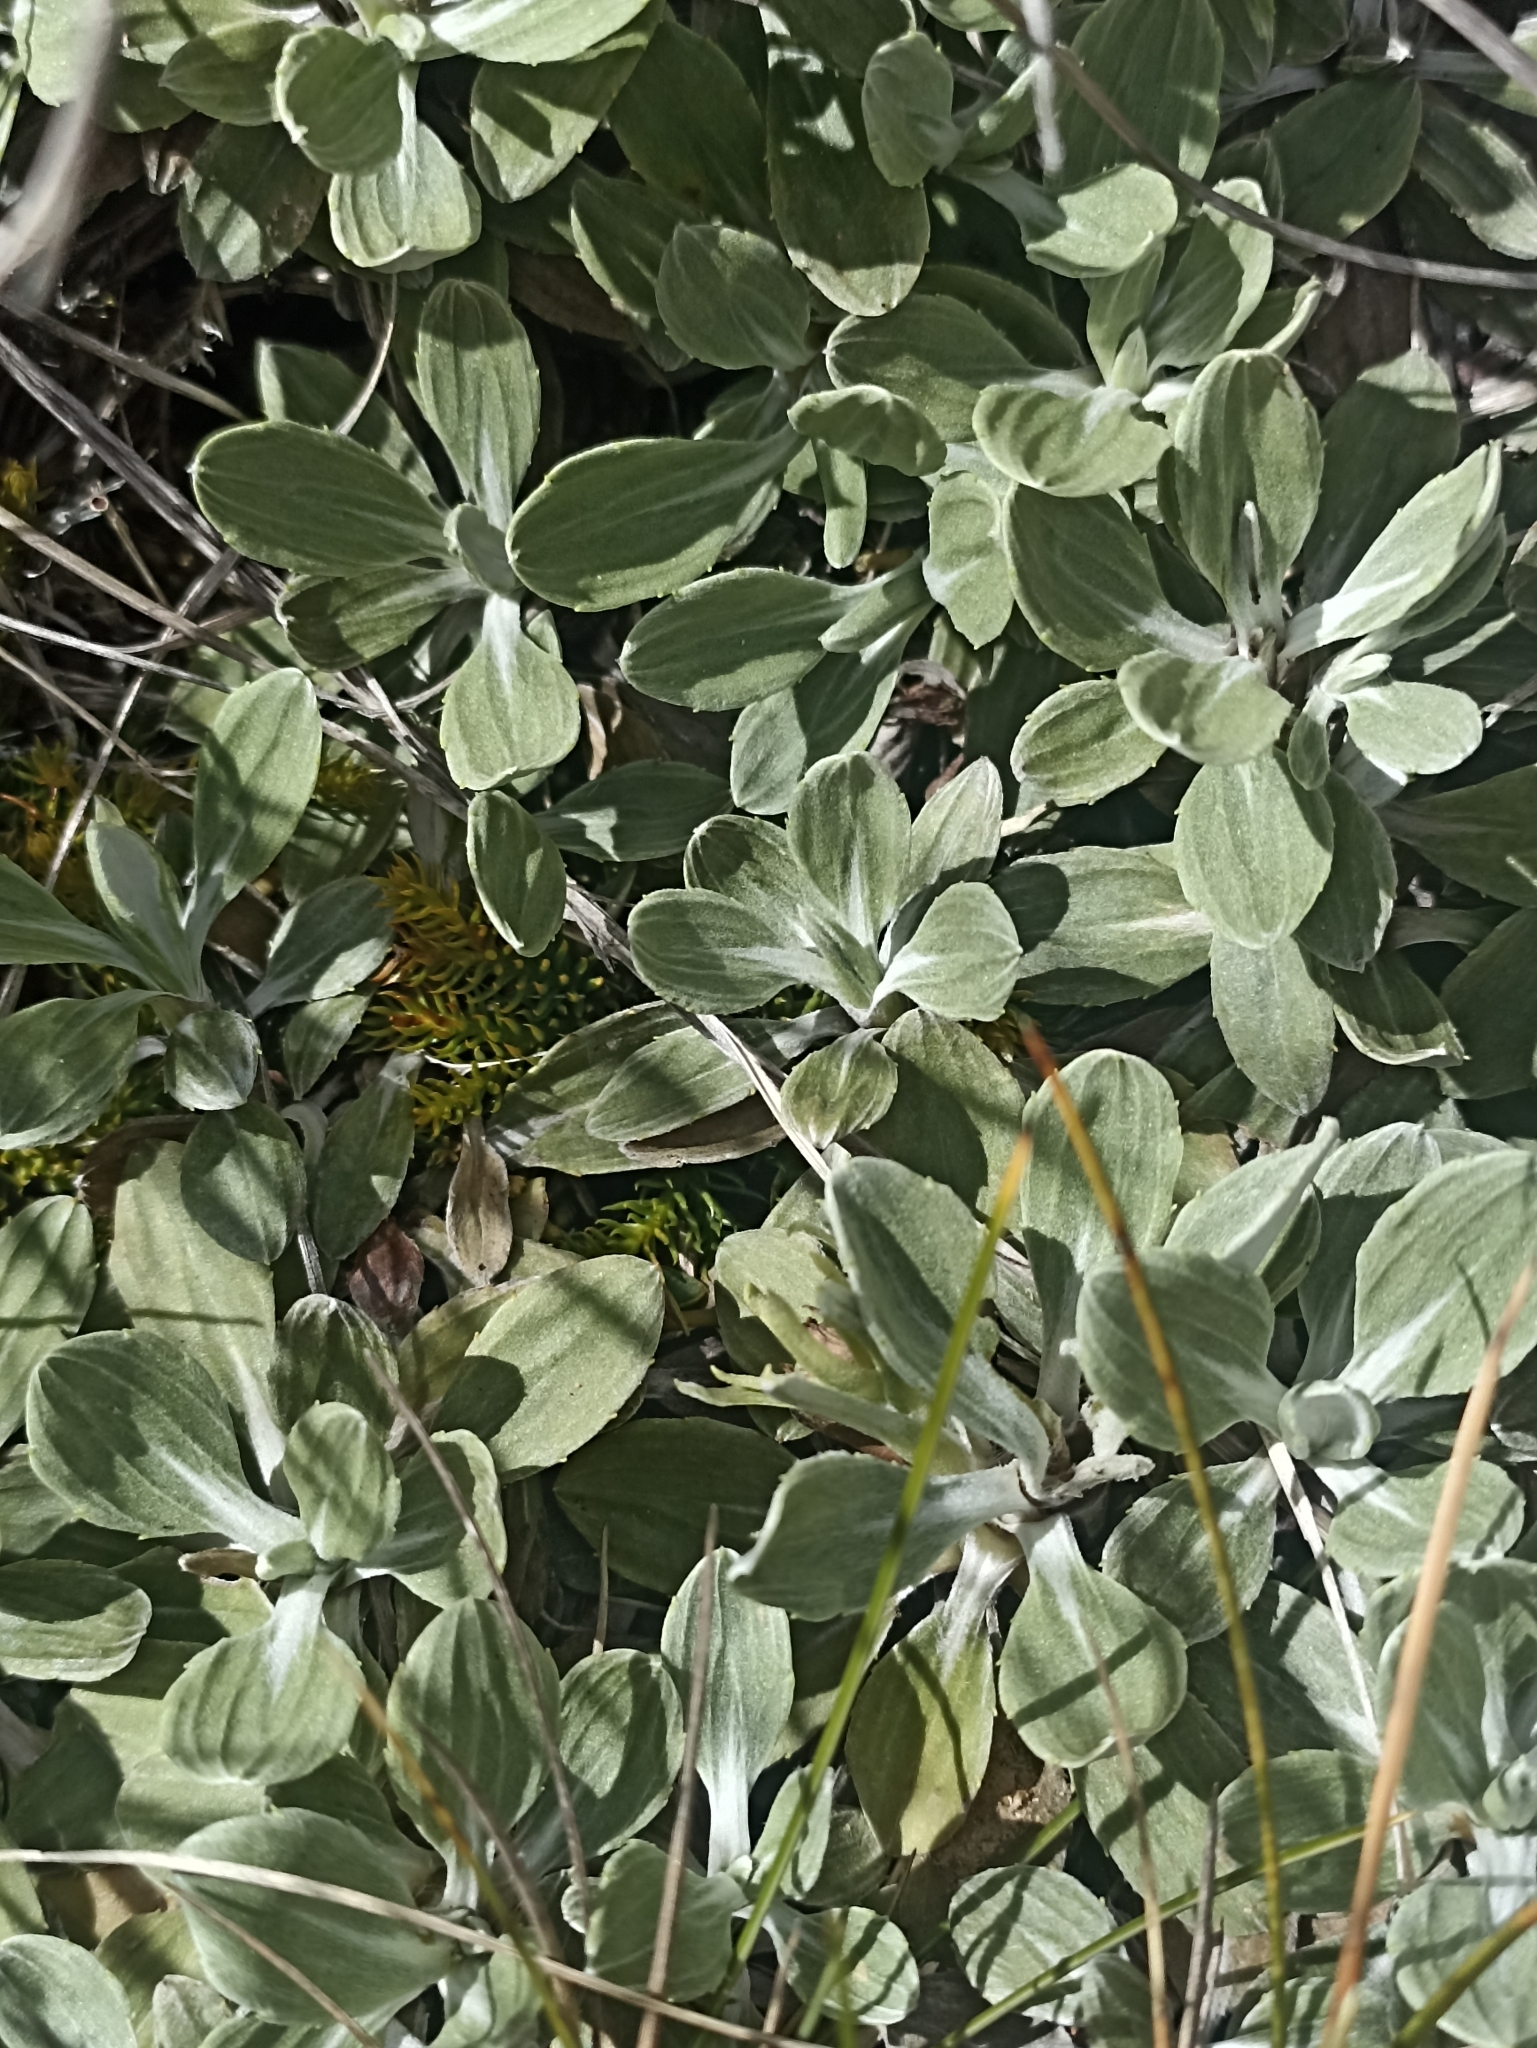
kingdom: Plantae
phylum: Tracheophyta
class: Magnoliopsida
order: Asterales
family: Asteraceae
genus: Celmisia
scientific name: Celmisia discolor
